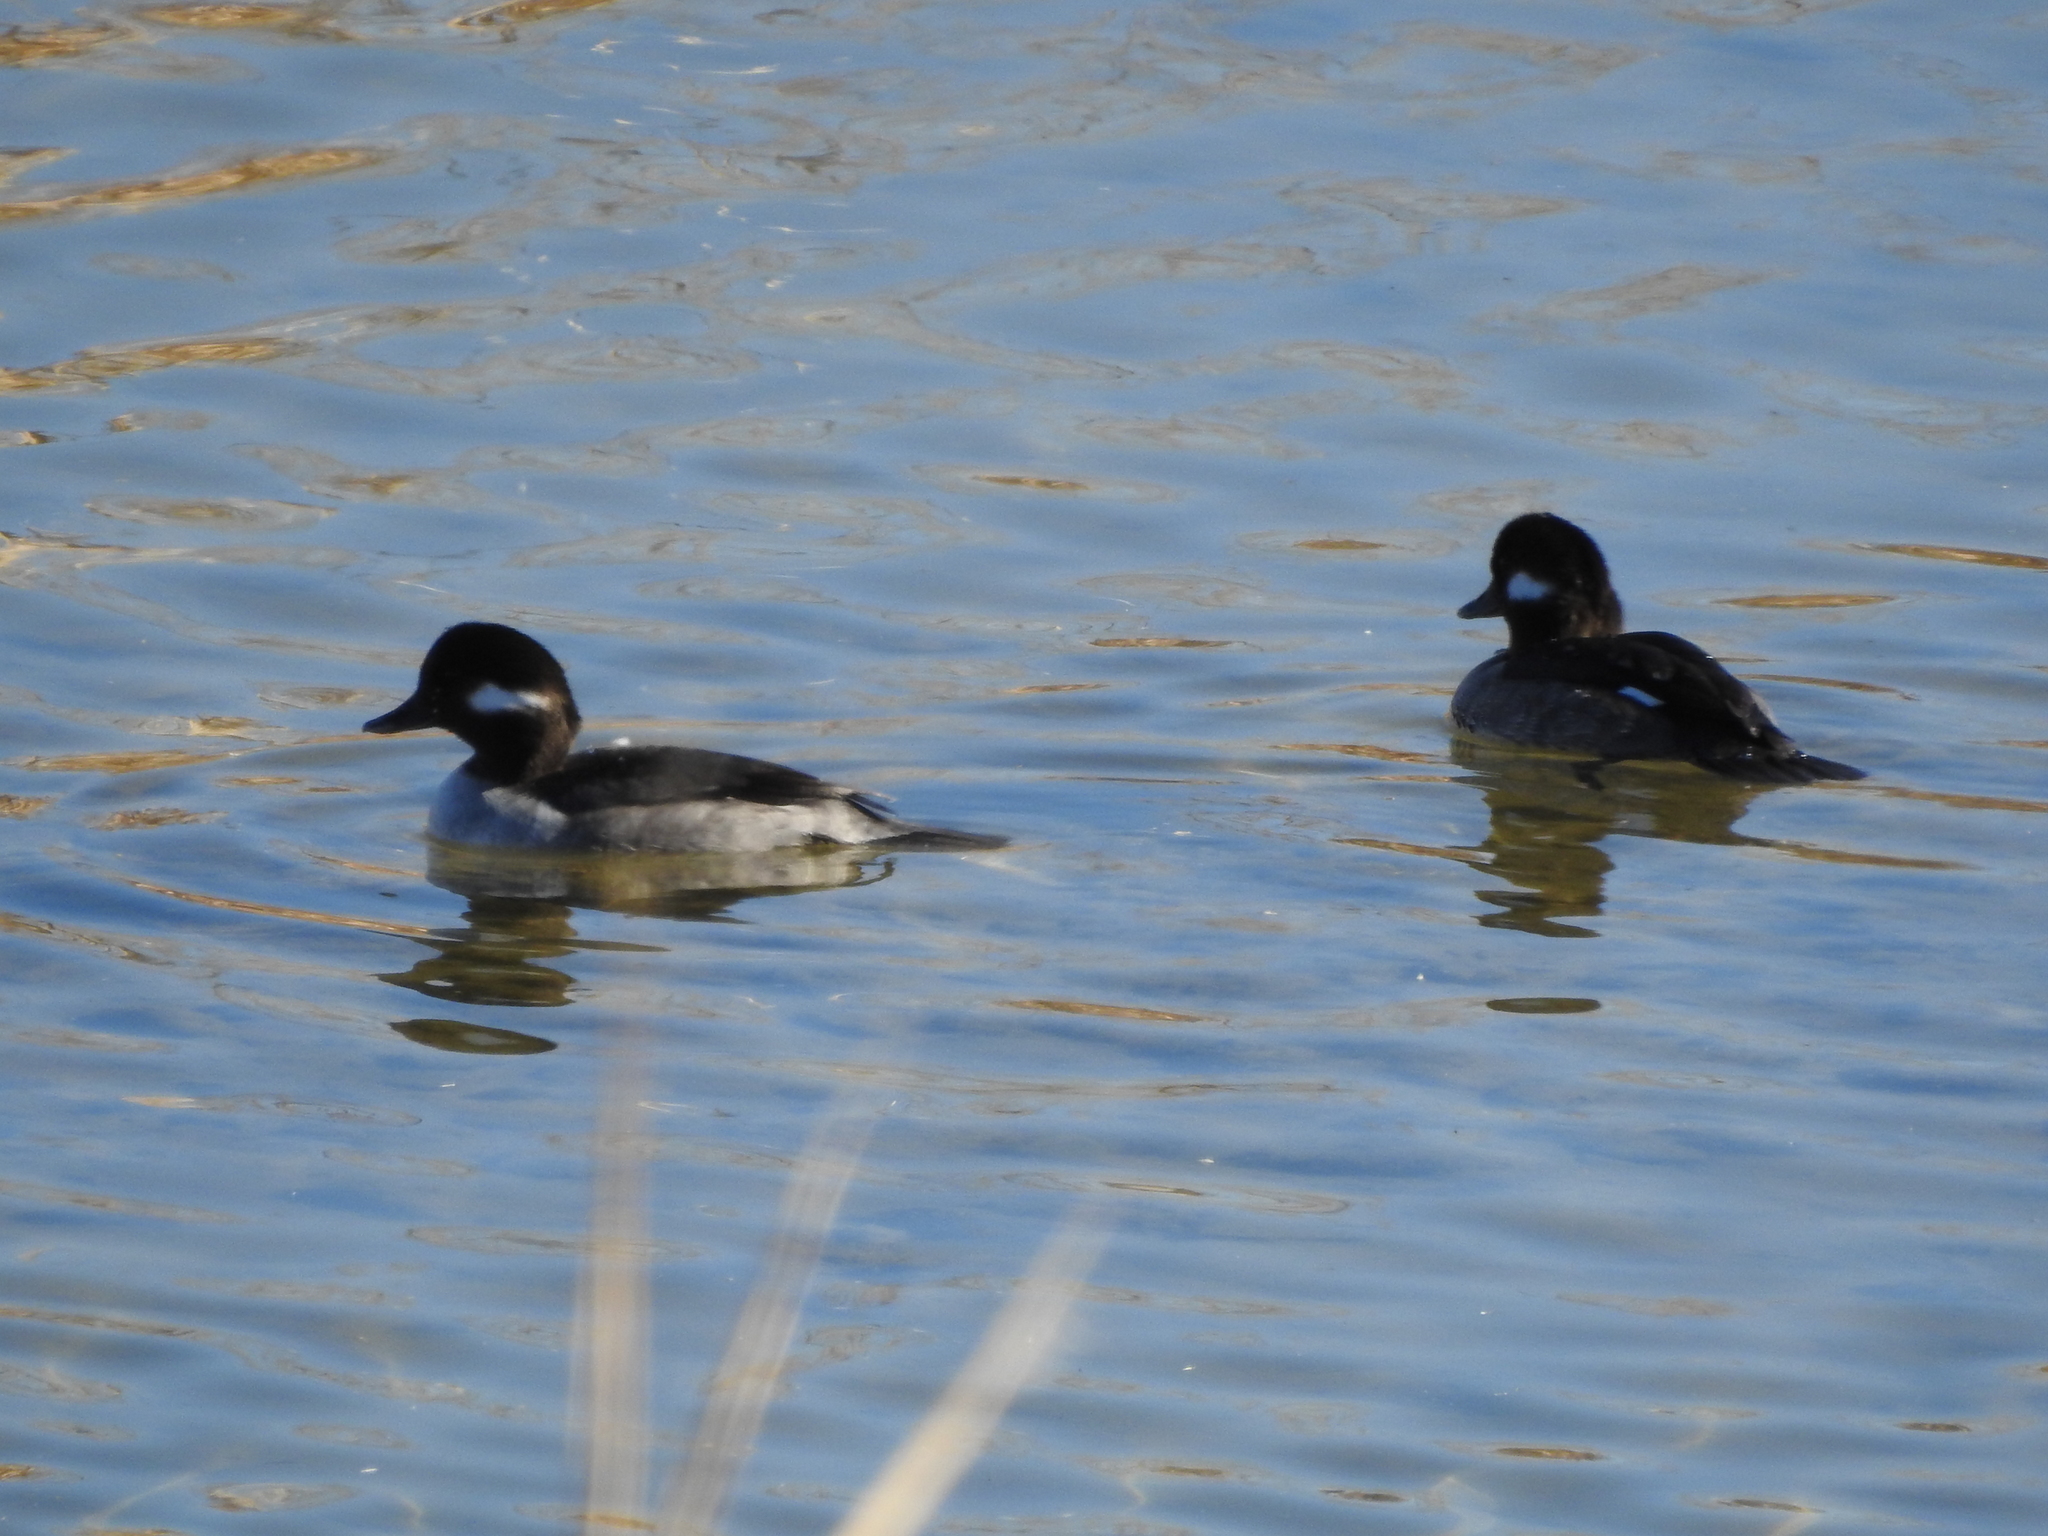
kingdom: Animalia
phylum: Chordata
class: Aves
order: Anseriformes
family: Anatidae
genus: Bucephala
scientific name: Bucephala albeola
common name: Bufflehead
